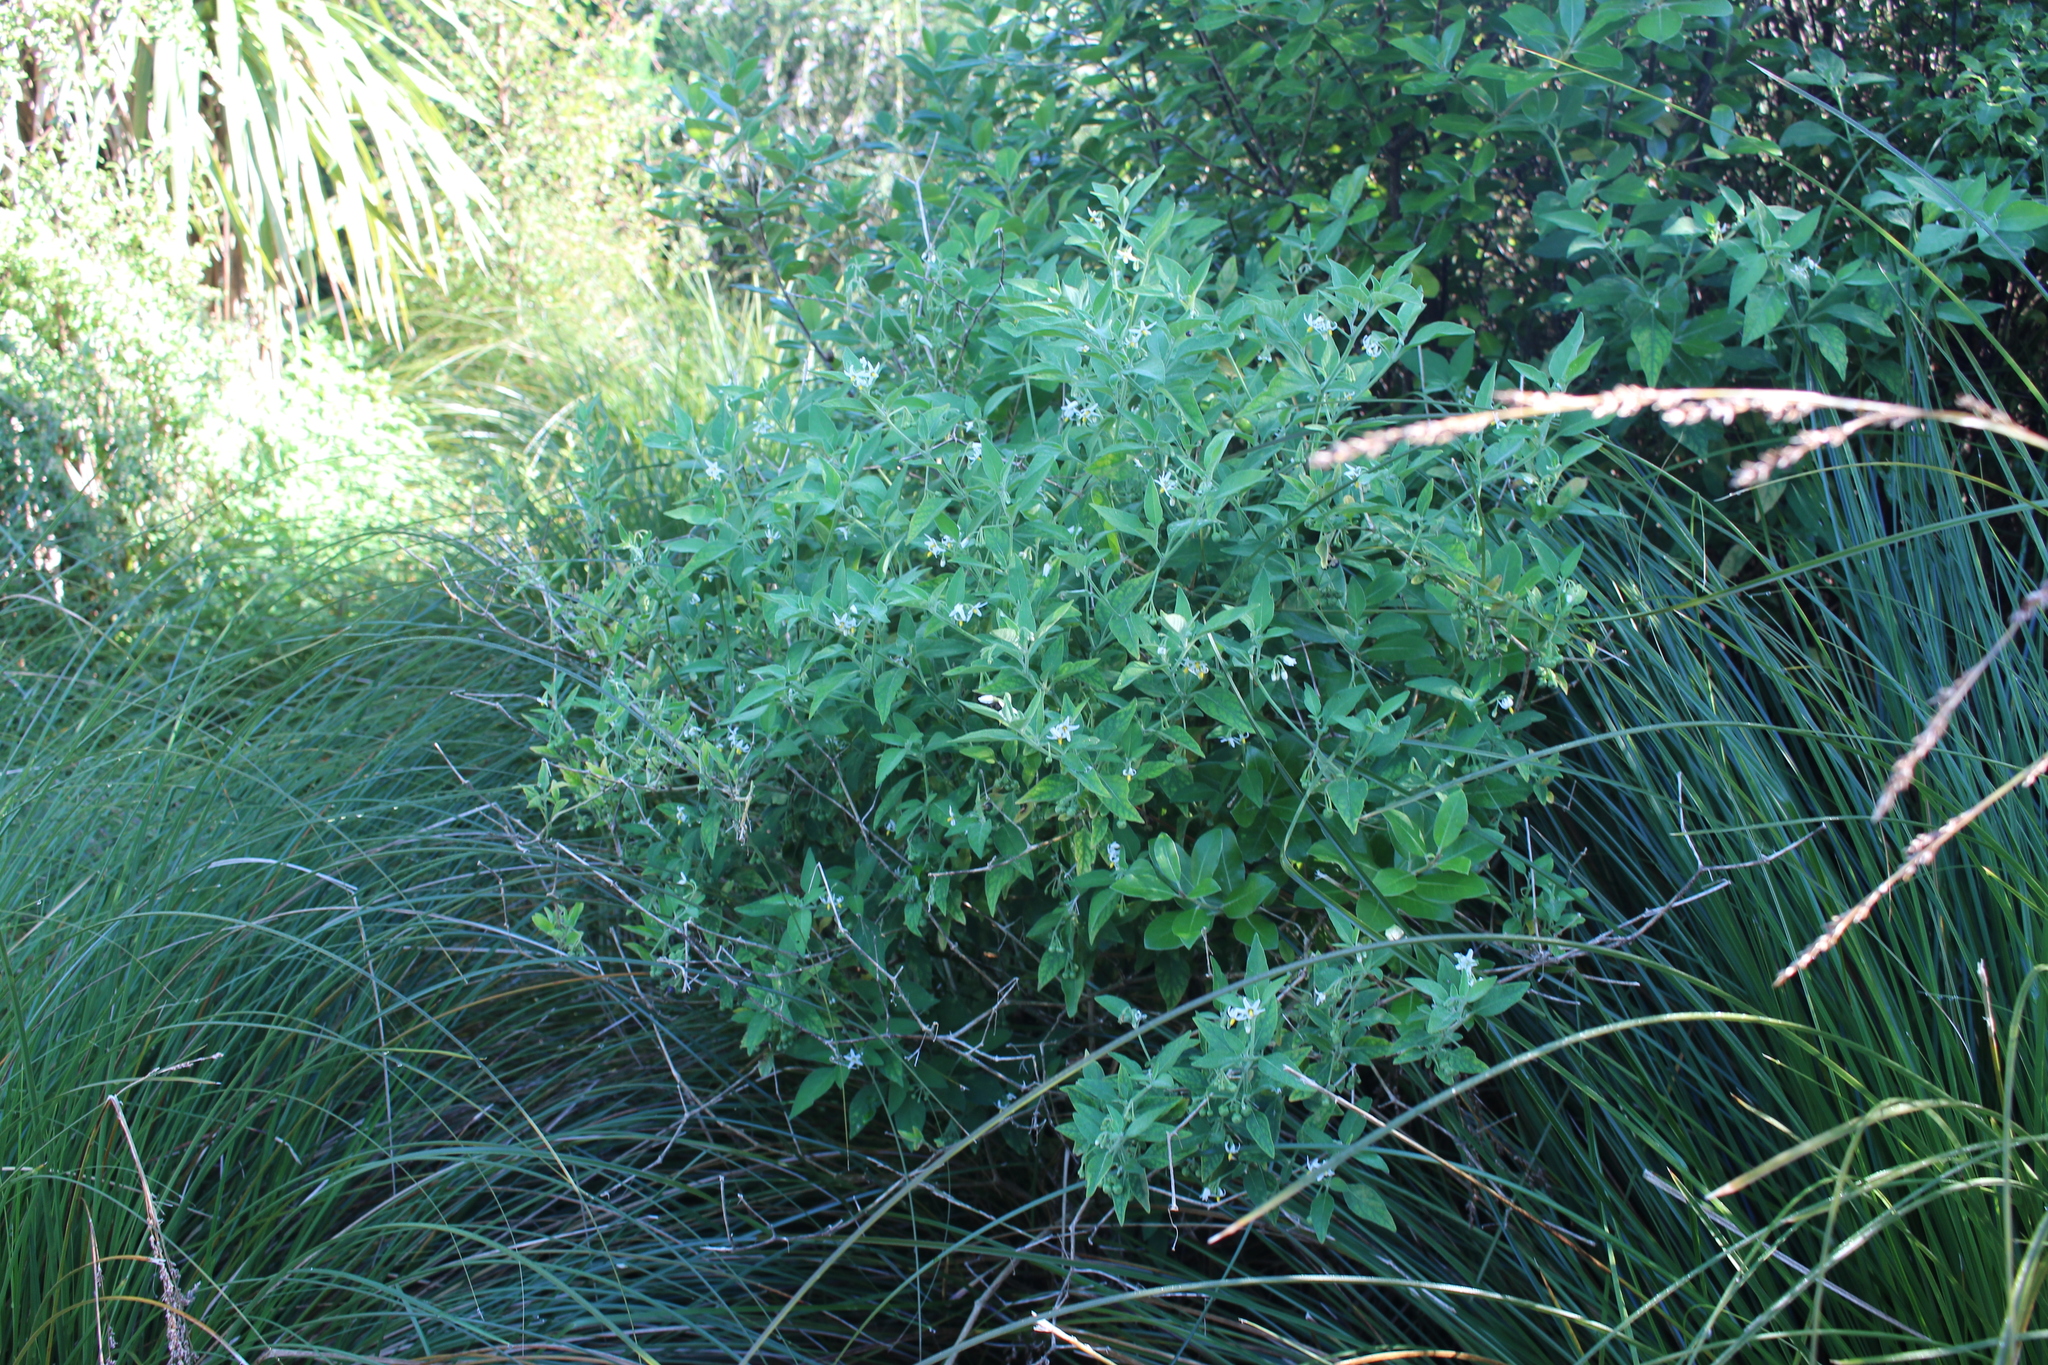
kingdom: Plantae
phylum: Tracheophyta
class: Magnoliopsida
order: Solanales
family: Solanaceae
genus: Solanum
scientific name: Solanum chenopodioides
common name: Tall nightshade
